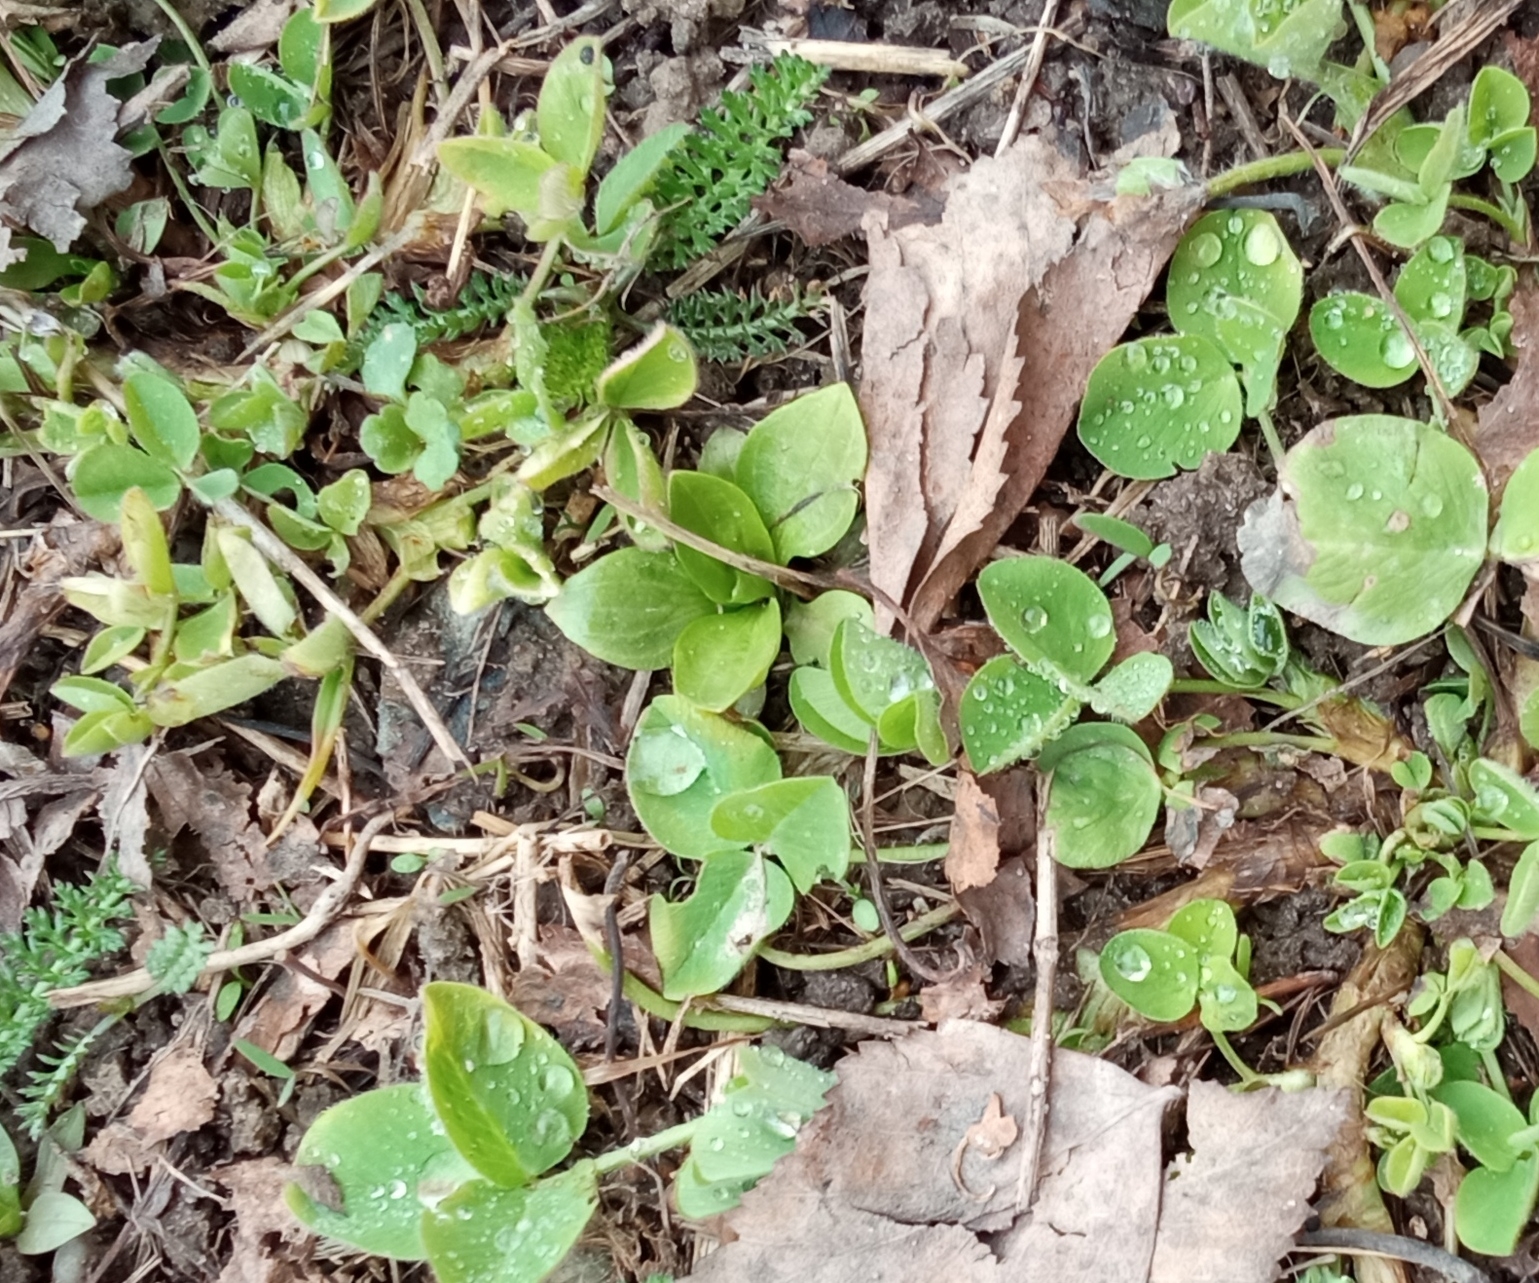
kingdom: Plantae
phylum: Tracheophyta
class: Magnoliopsida
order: Lamiales
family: Plantaginaceae
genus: Plantago
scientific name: Plantago major
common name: Common plantain
